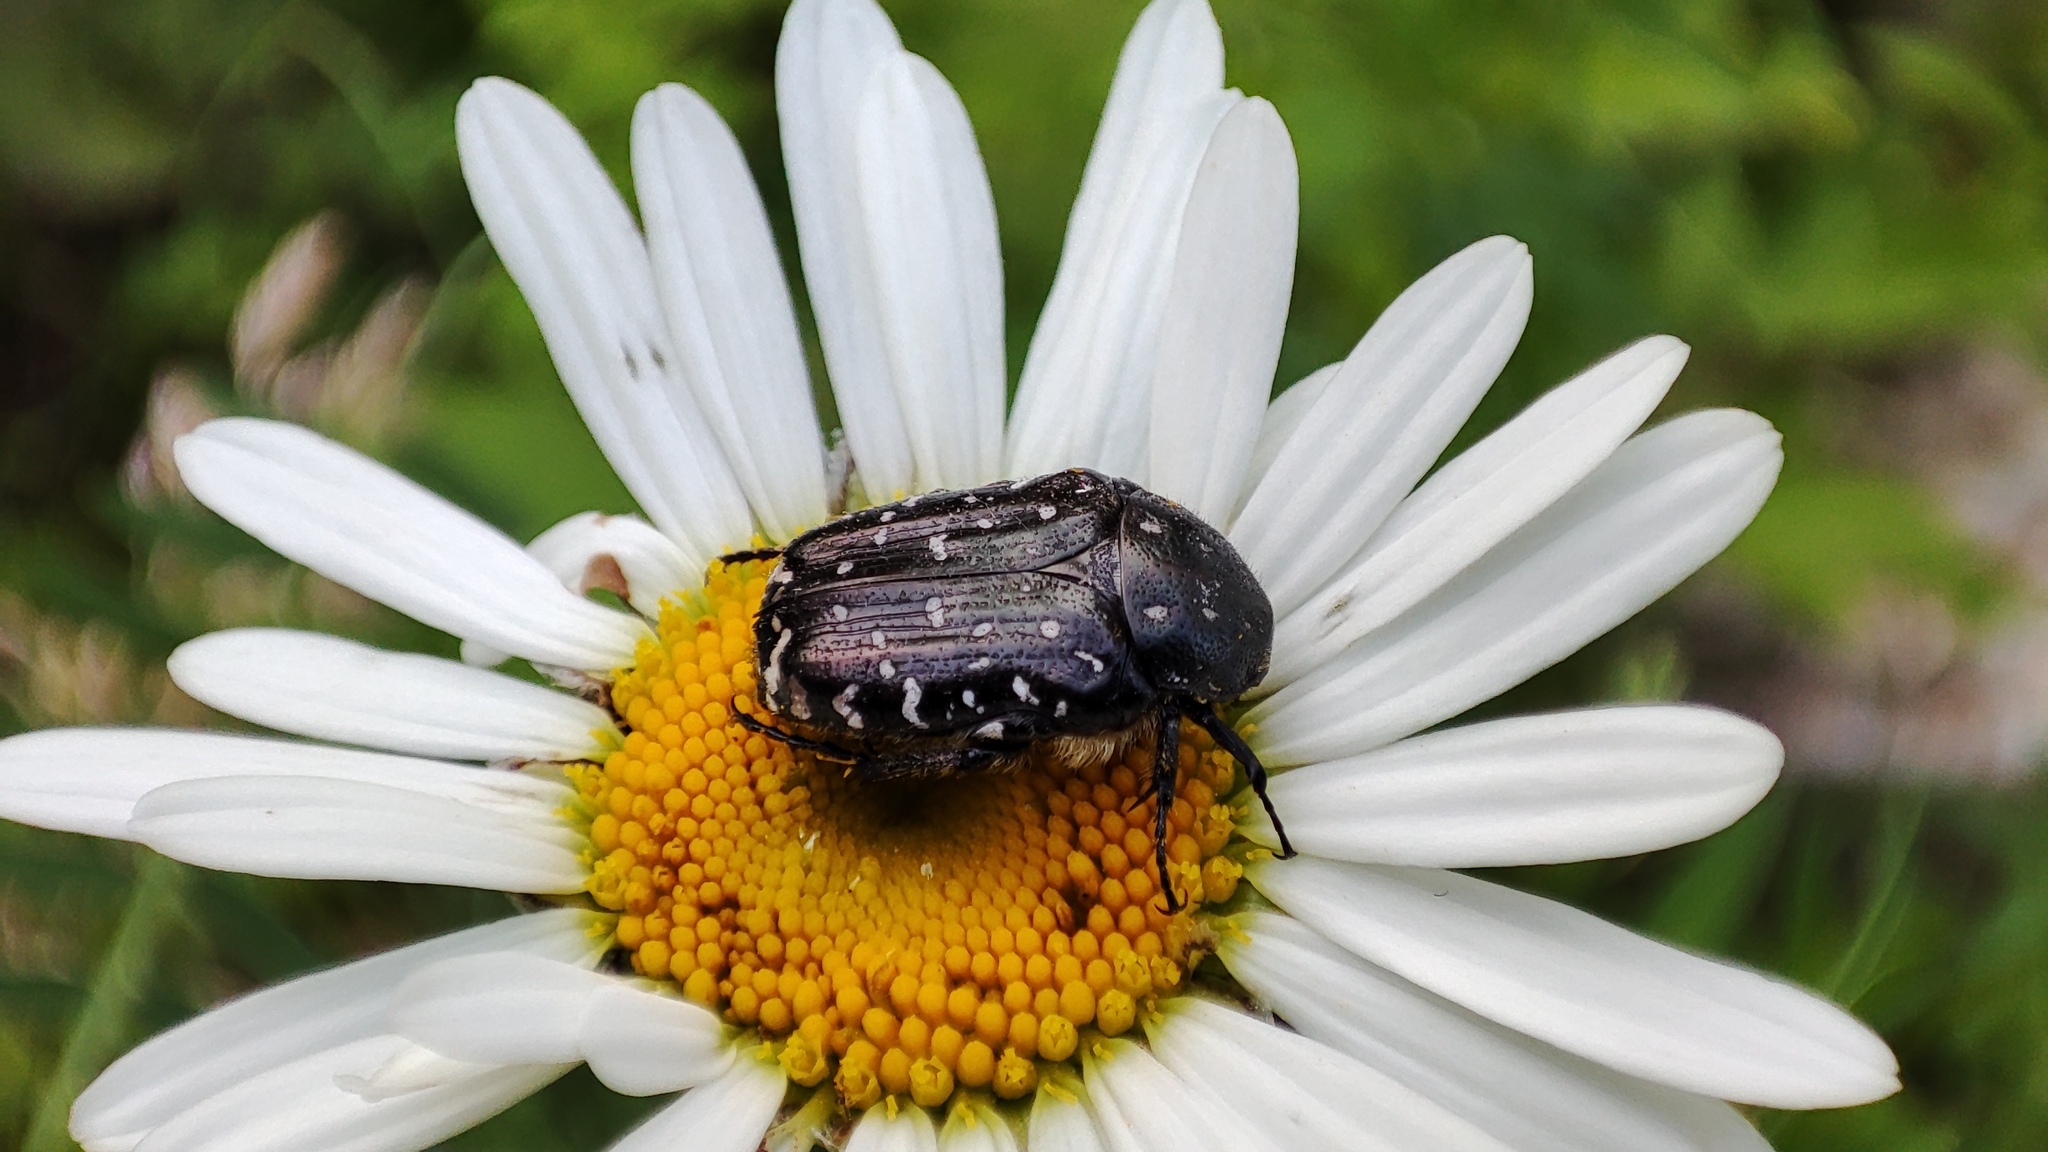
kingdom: Animalia
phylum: Arthropoda
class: Insecta
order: Coleoptera
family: Scarabaeidae
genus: Oxythyrea
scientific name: Oxythyrea funesta
